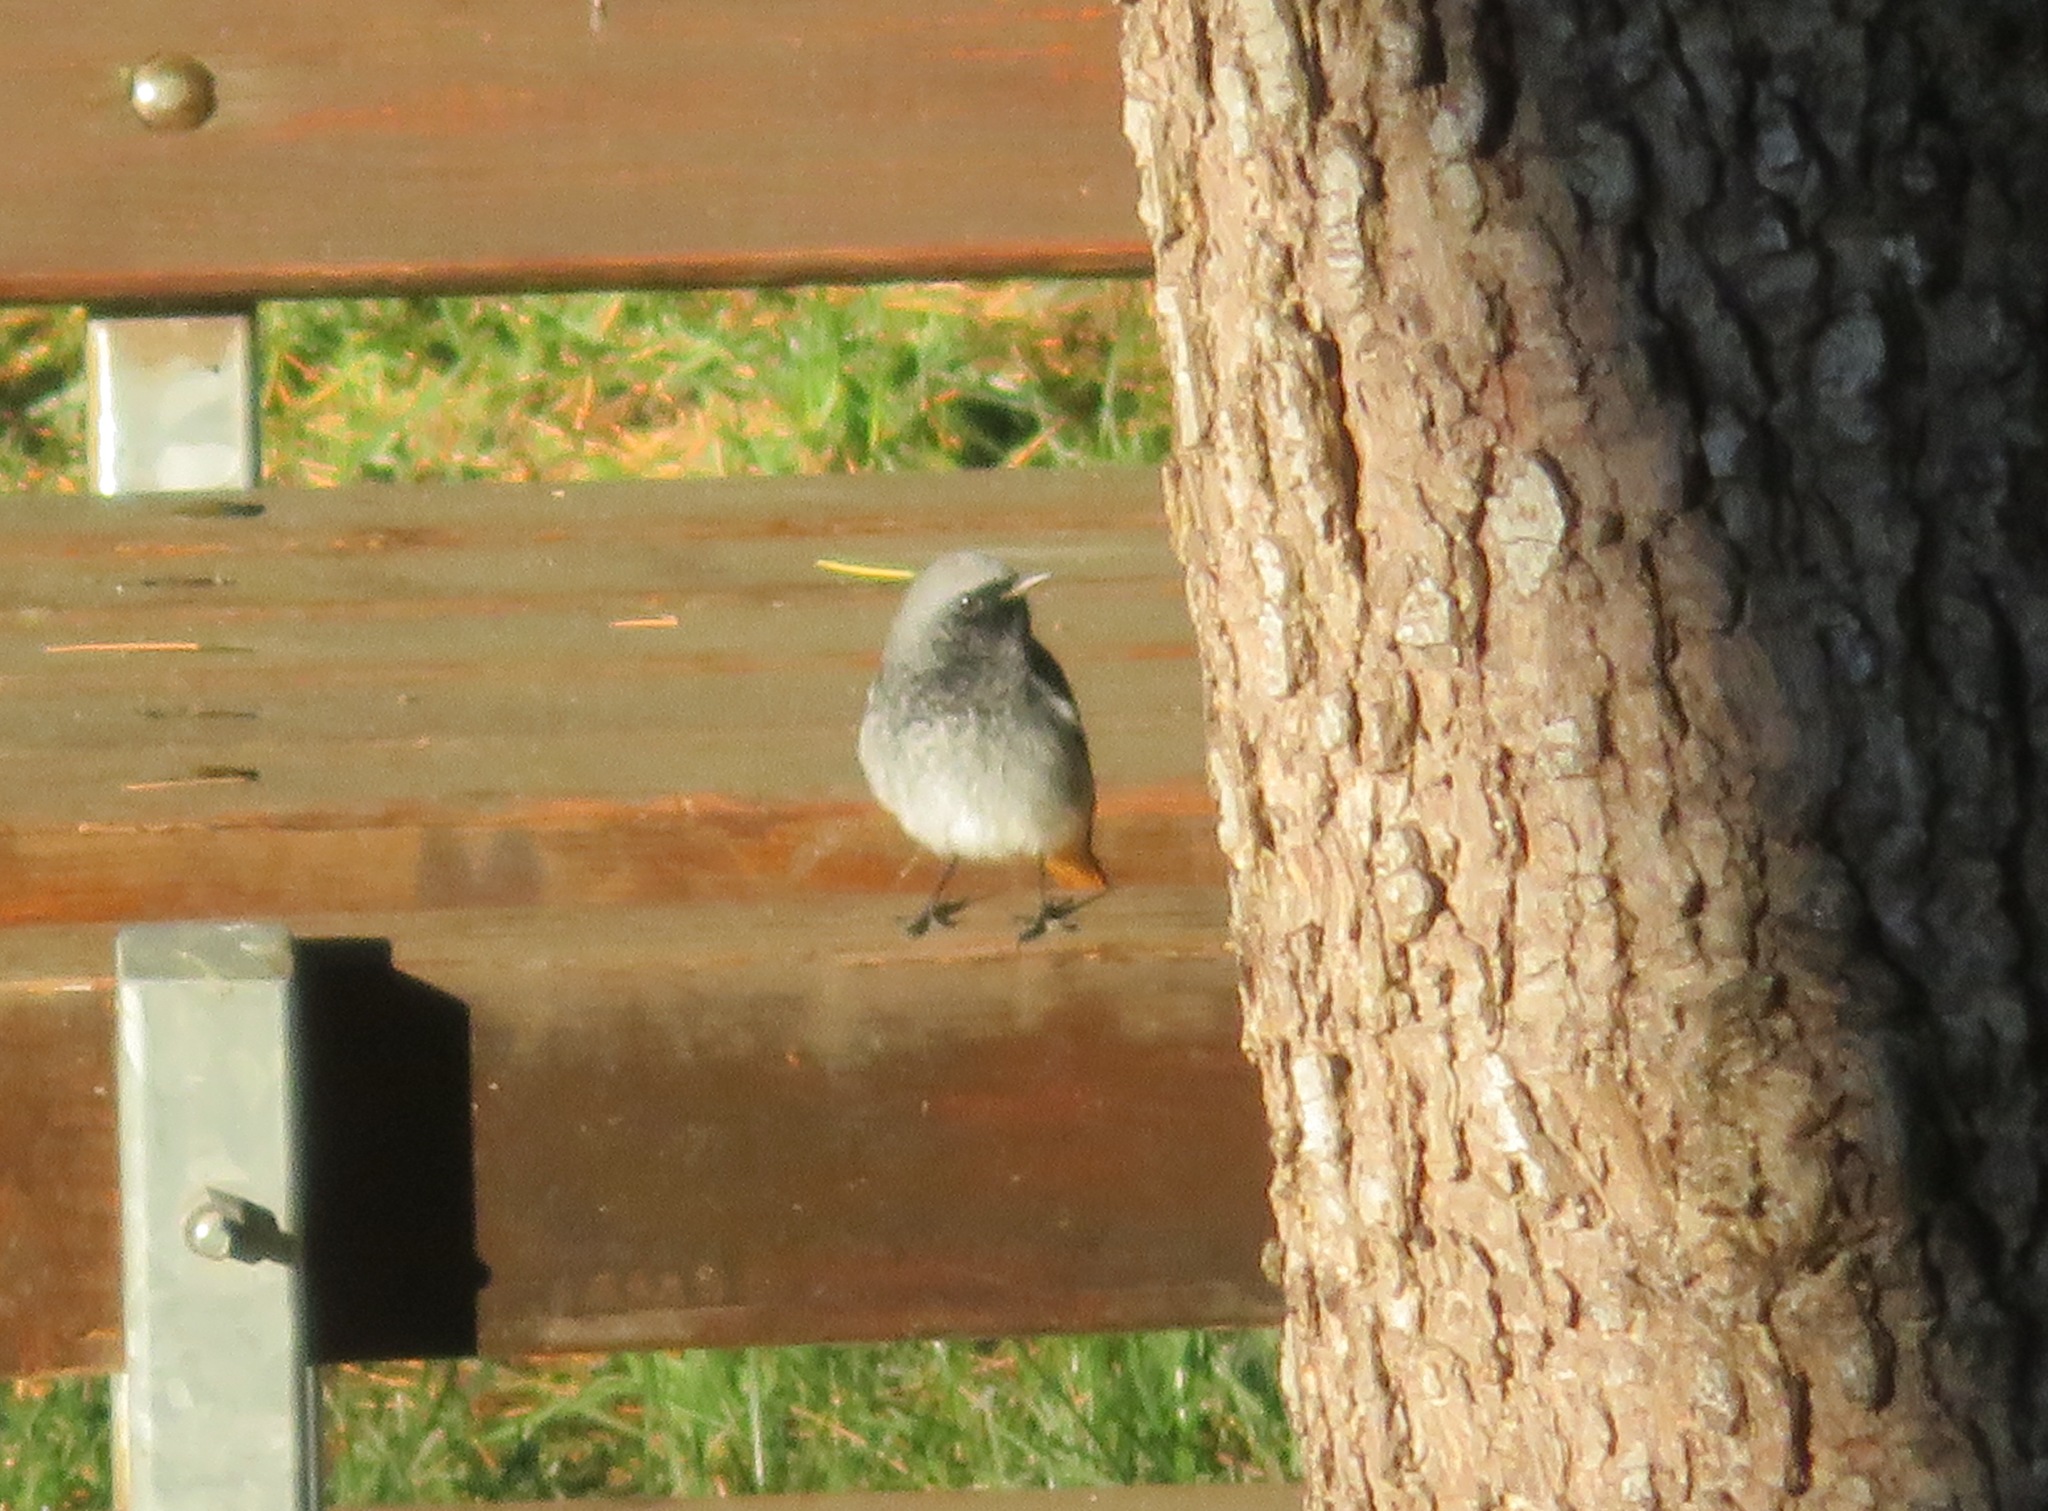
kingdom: Animalia
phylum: Chordata
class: Aves
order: Passeriformes
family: Muscicapidae
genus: Phoenicurus
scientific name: Phoenicurus ochruros
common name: Black redstart
